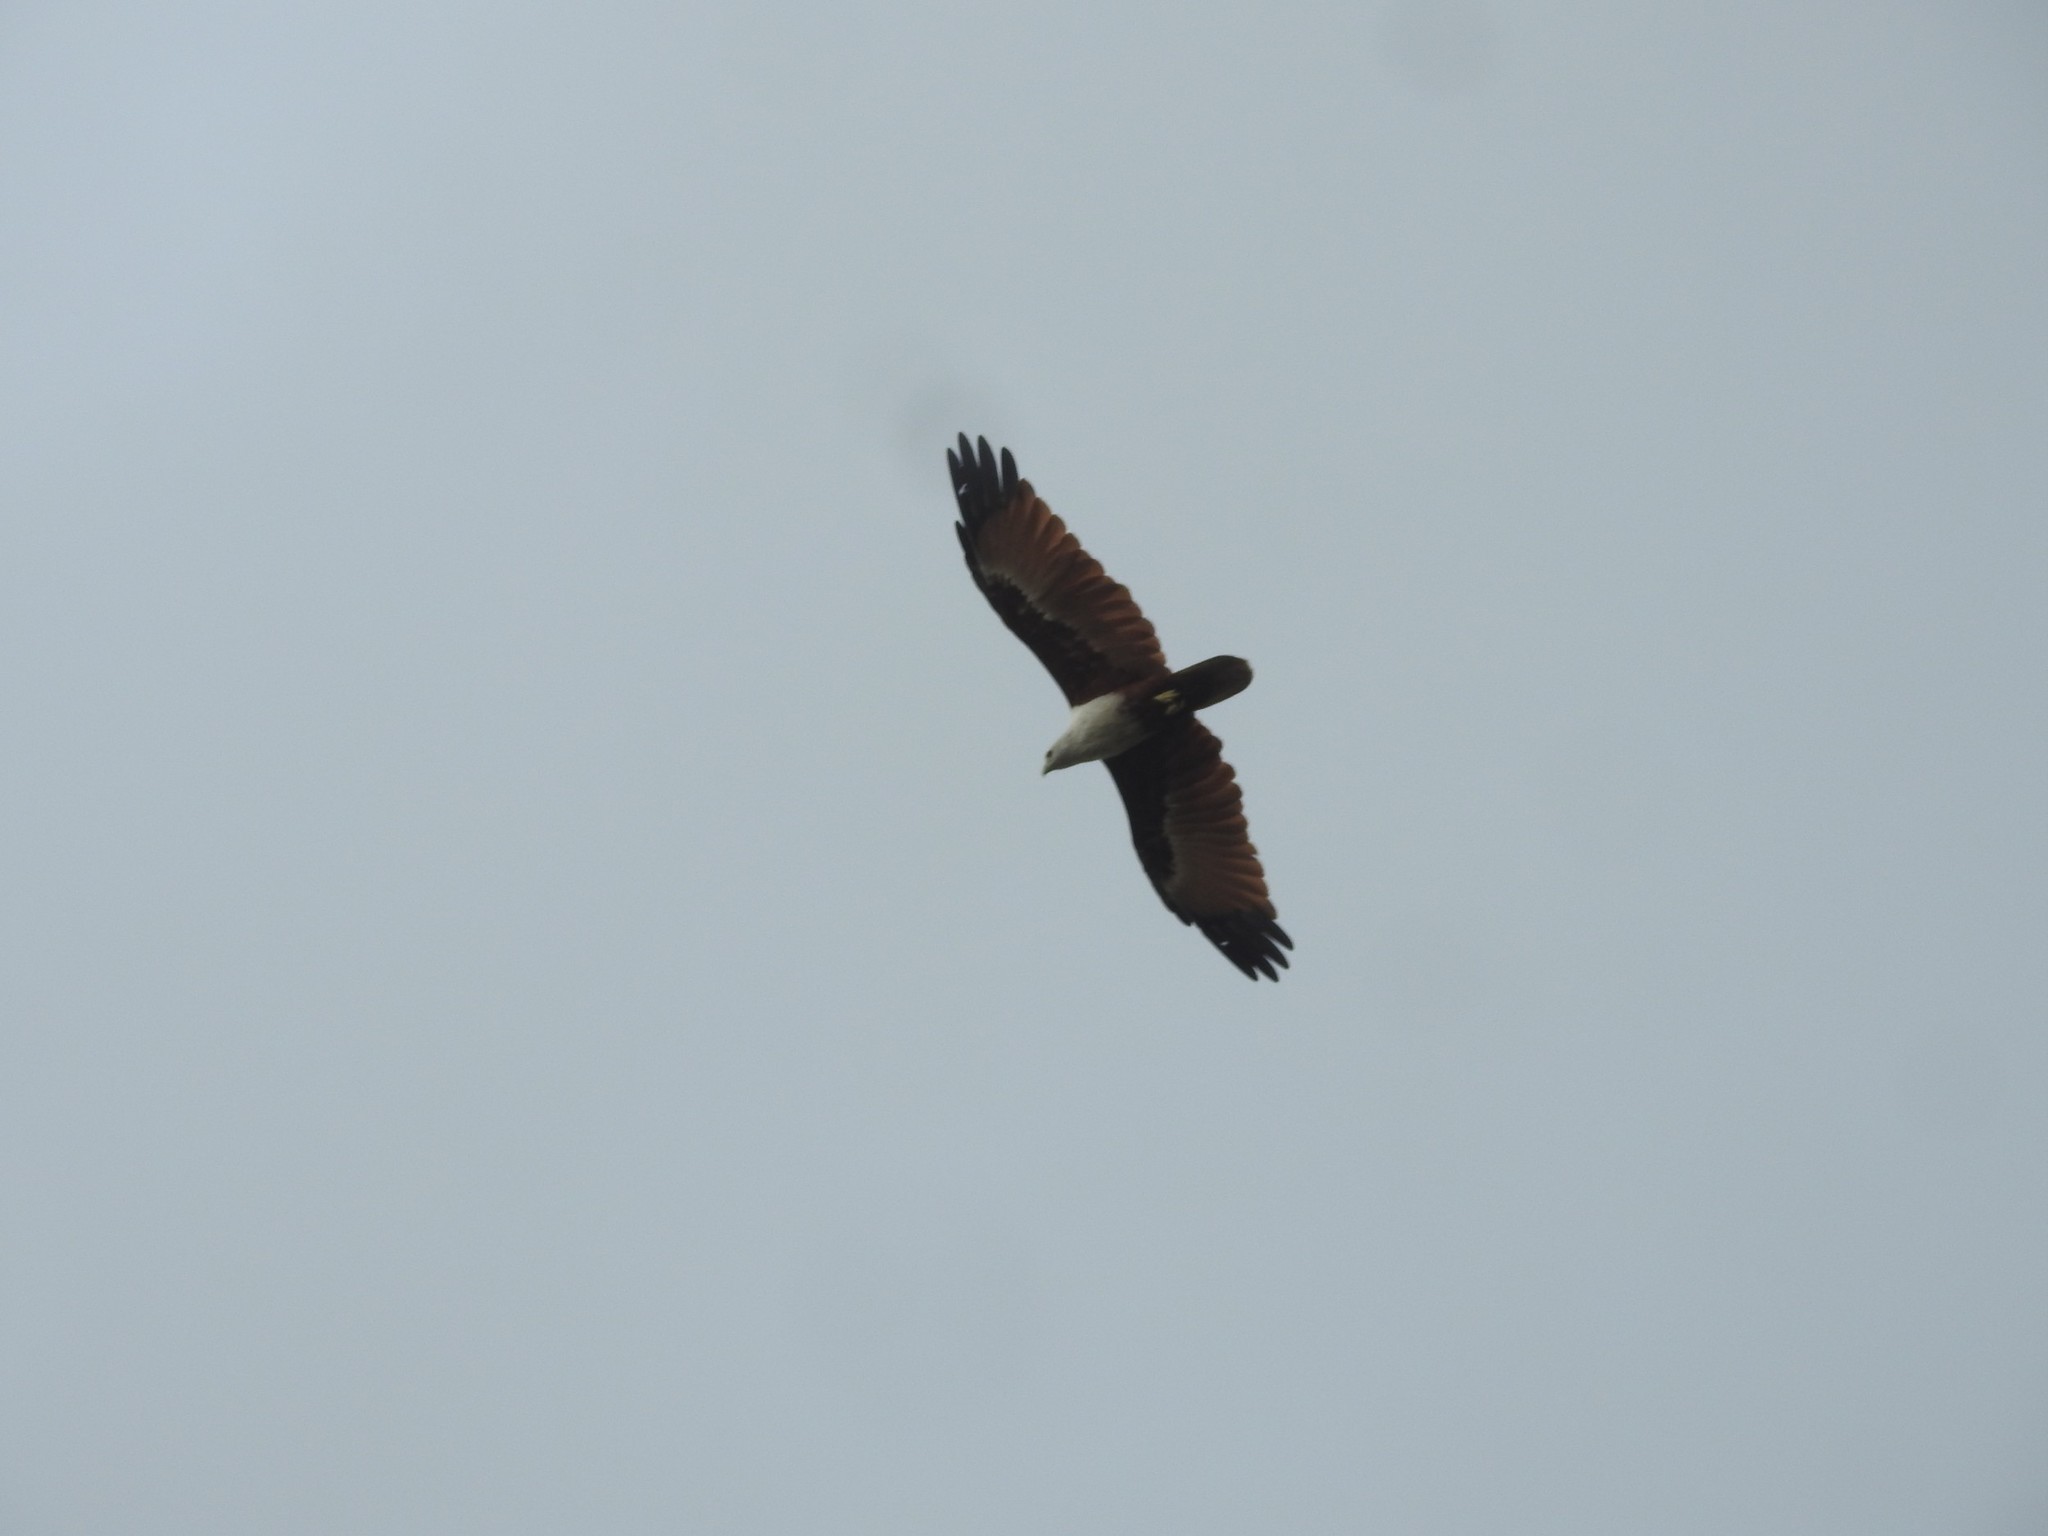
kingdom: Animalia
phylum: Chordata
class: Aves
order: Accipitriformes
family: Accipitridae
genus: Haliastur
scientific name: Haliastur indus
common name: Brahminy kite
